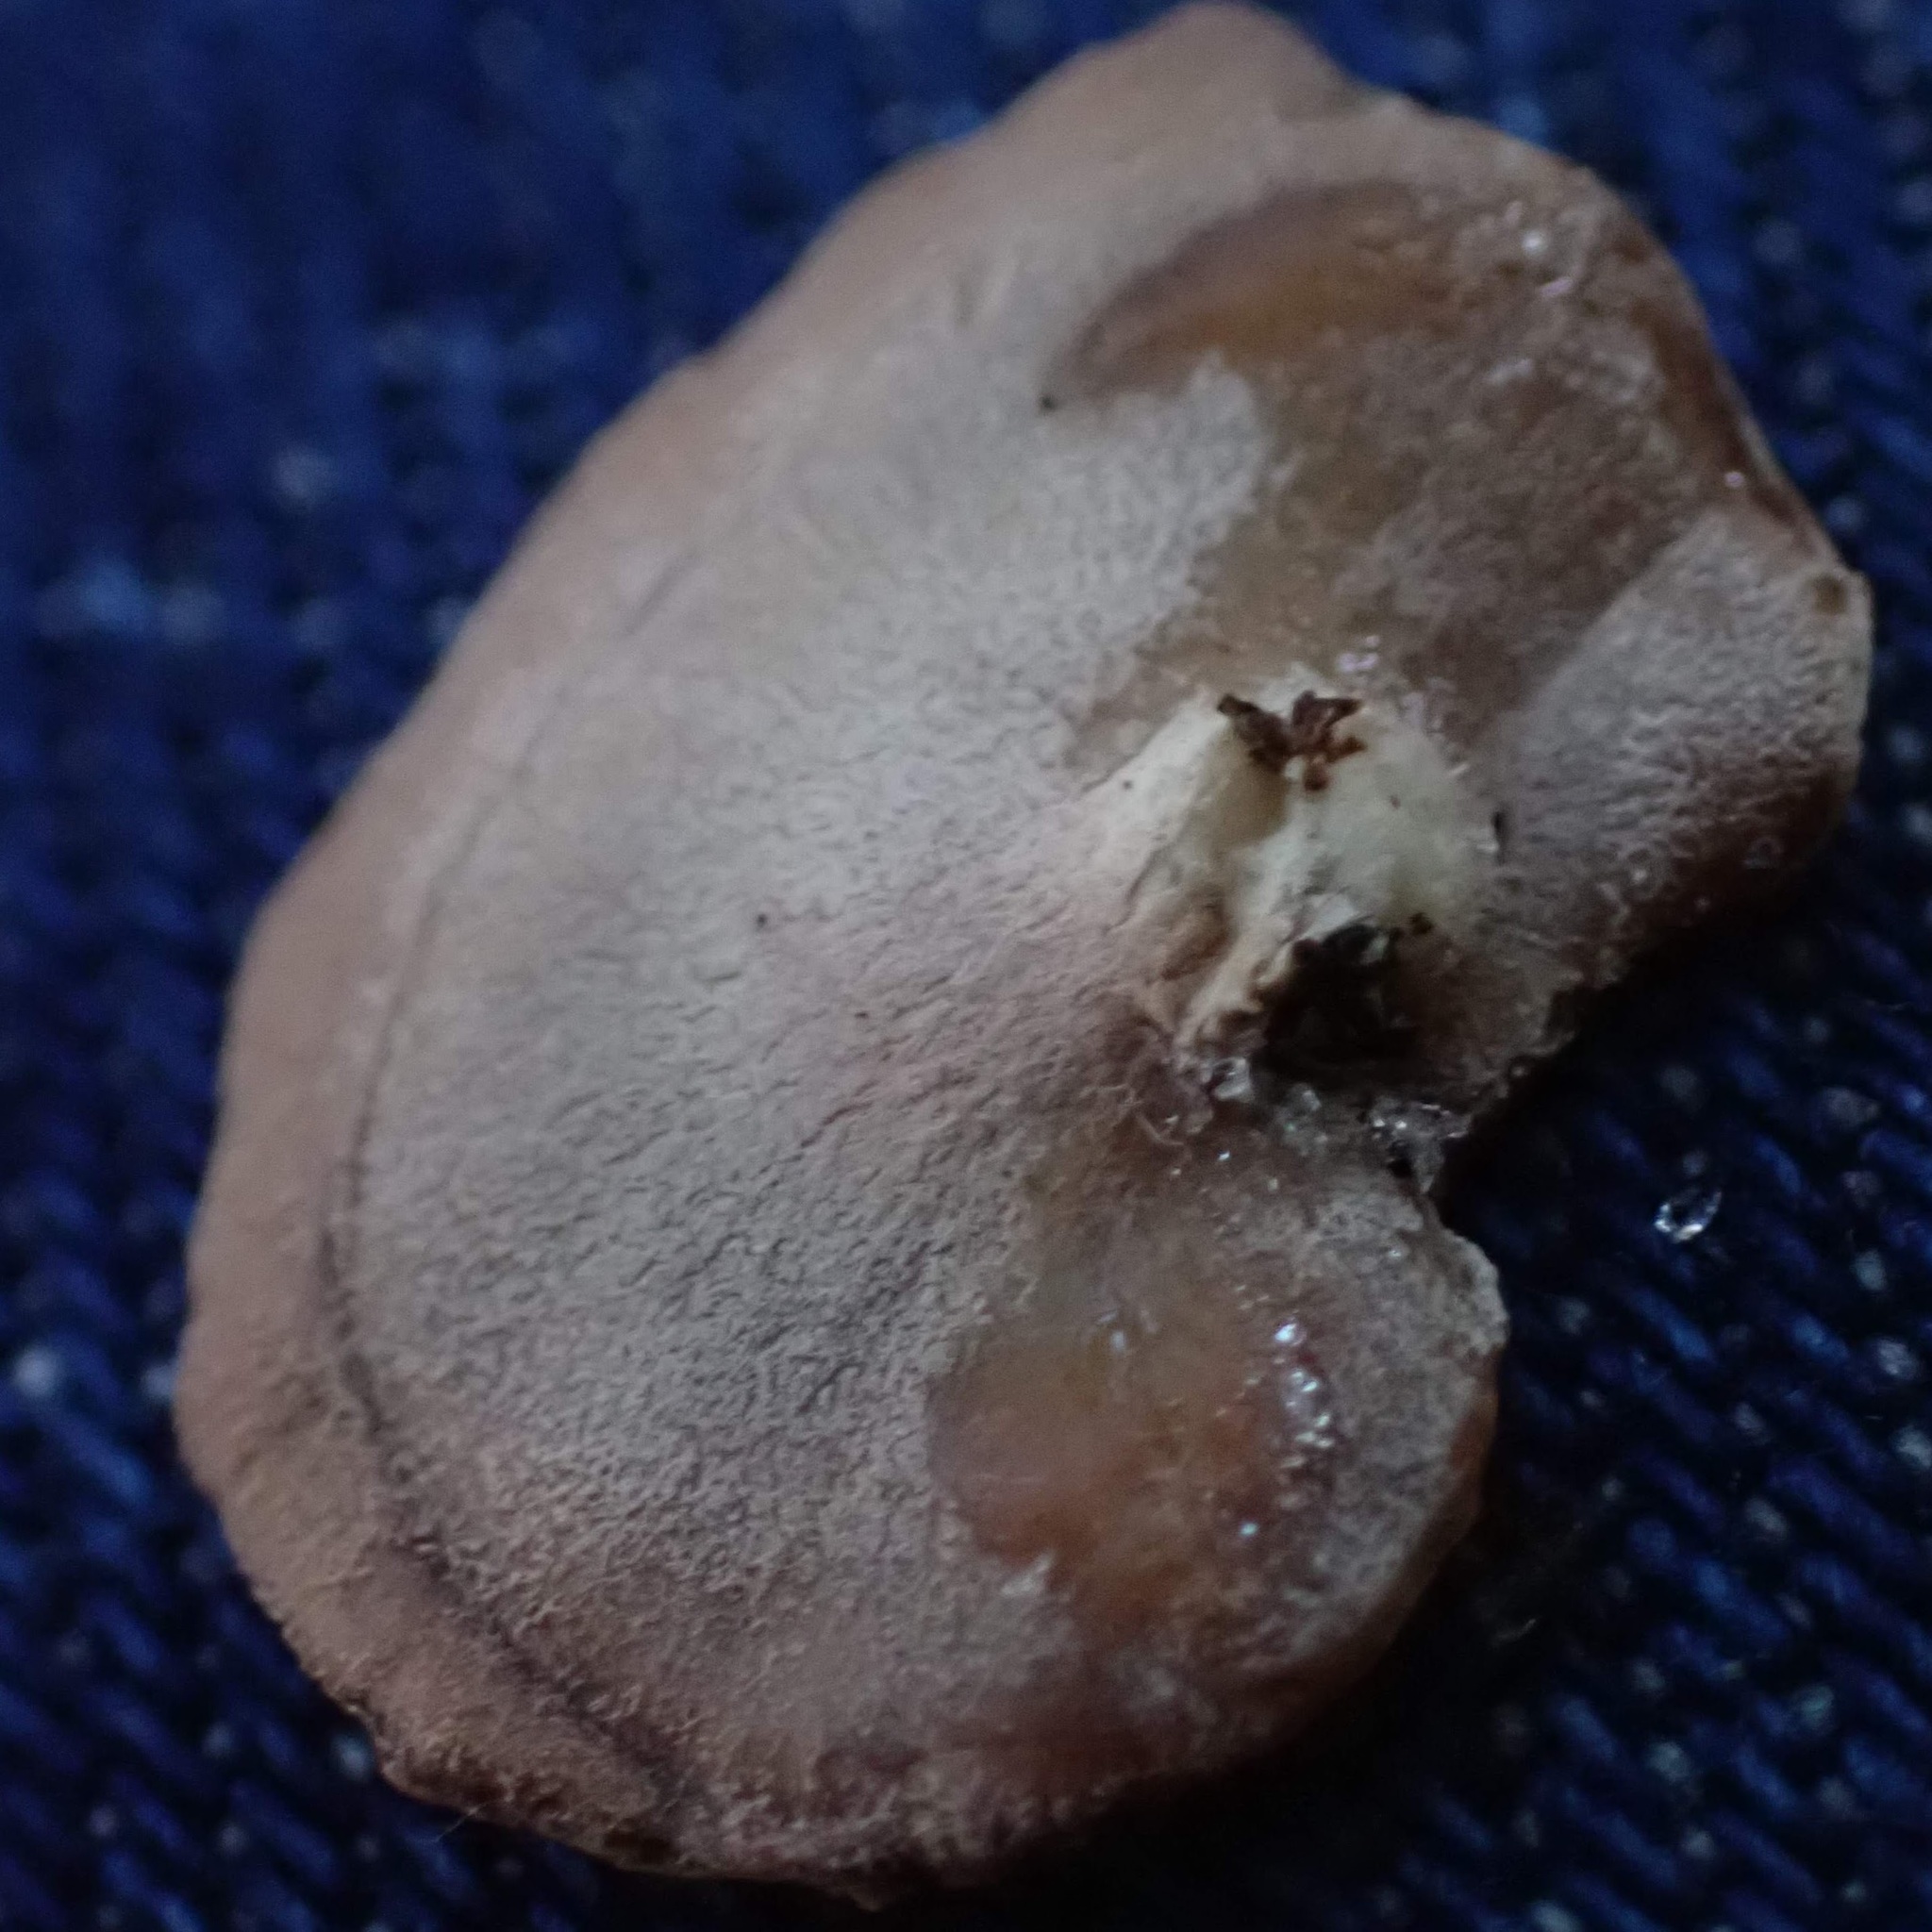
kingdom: Fungi
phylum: Basidiomycota
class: Agaricomycetes
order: Agaricales
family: Mycenaceae
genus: Panellus
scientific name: Panellus ringens
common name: Winter oysterling
